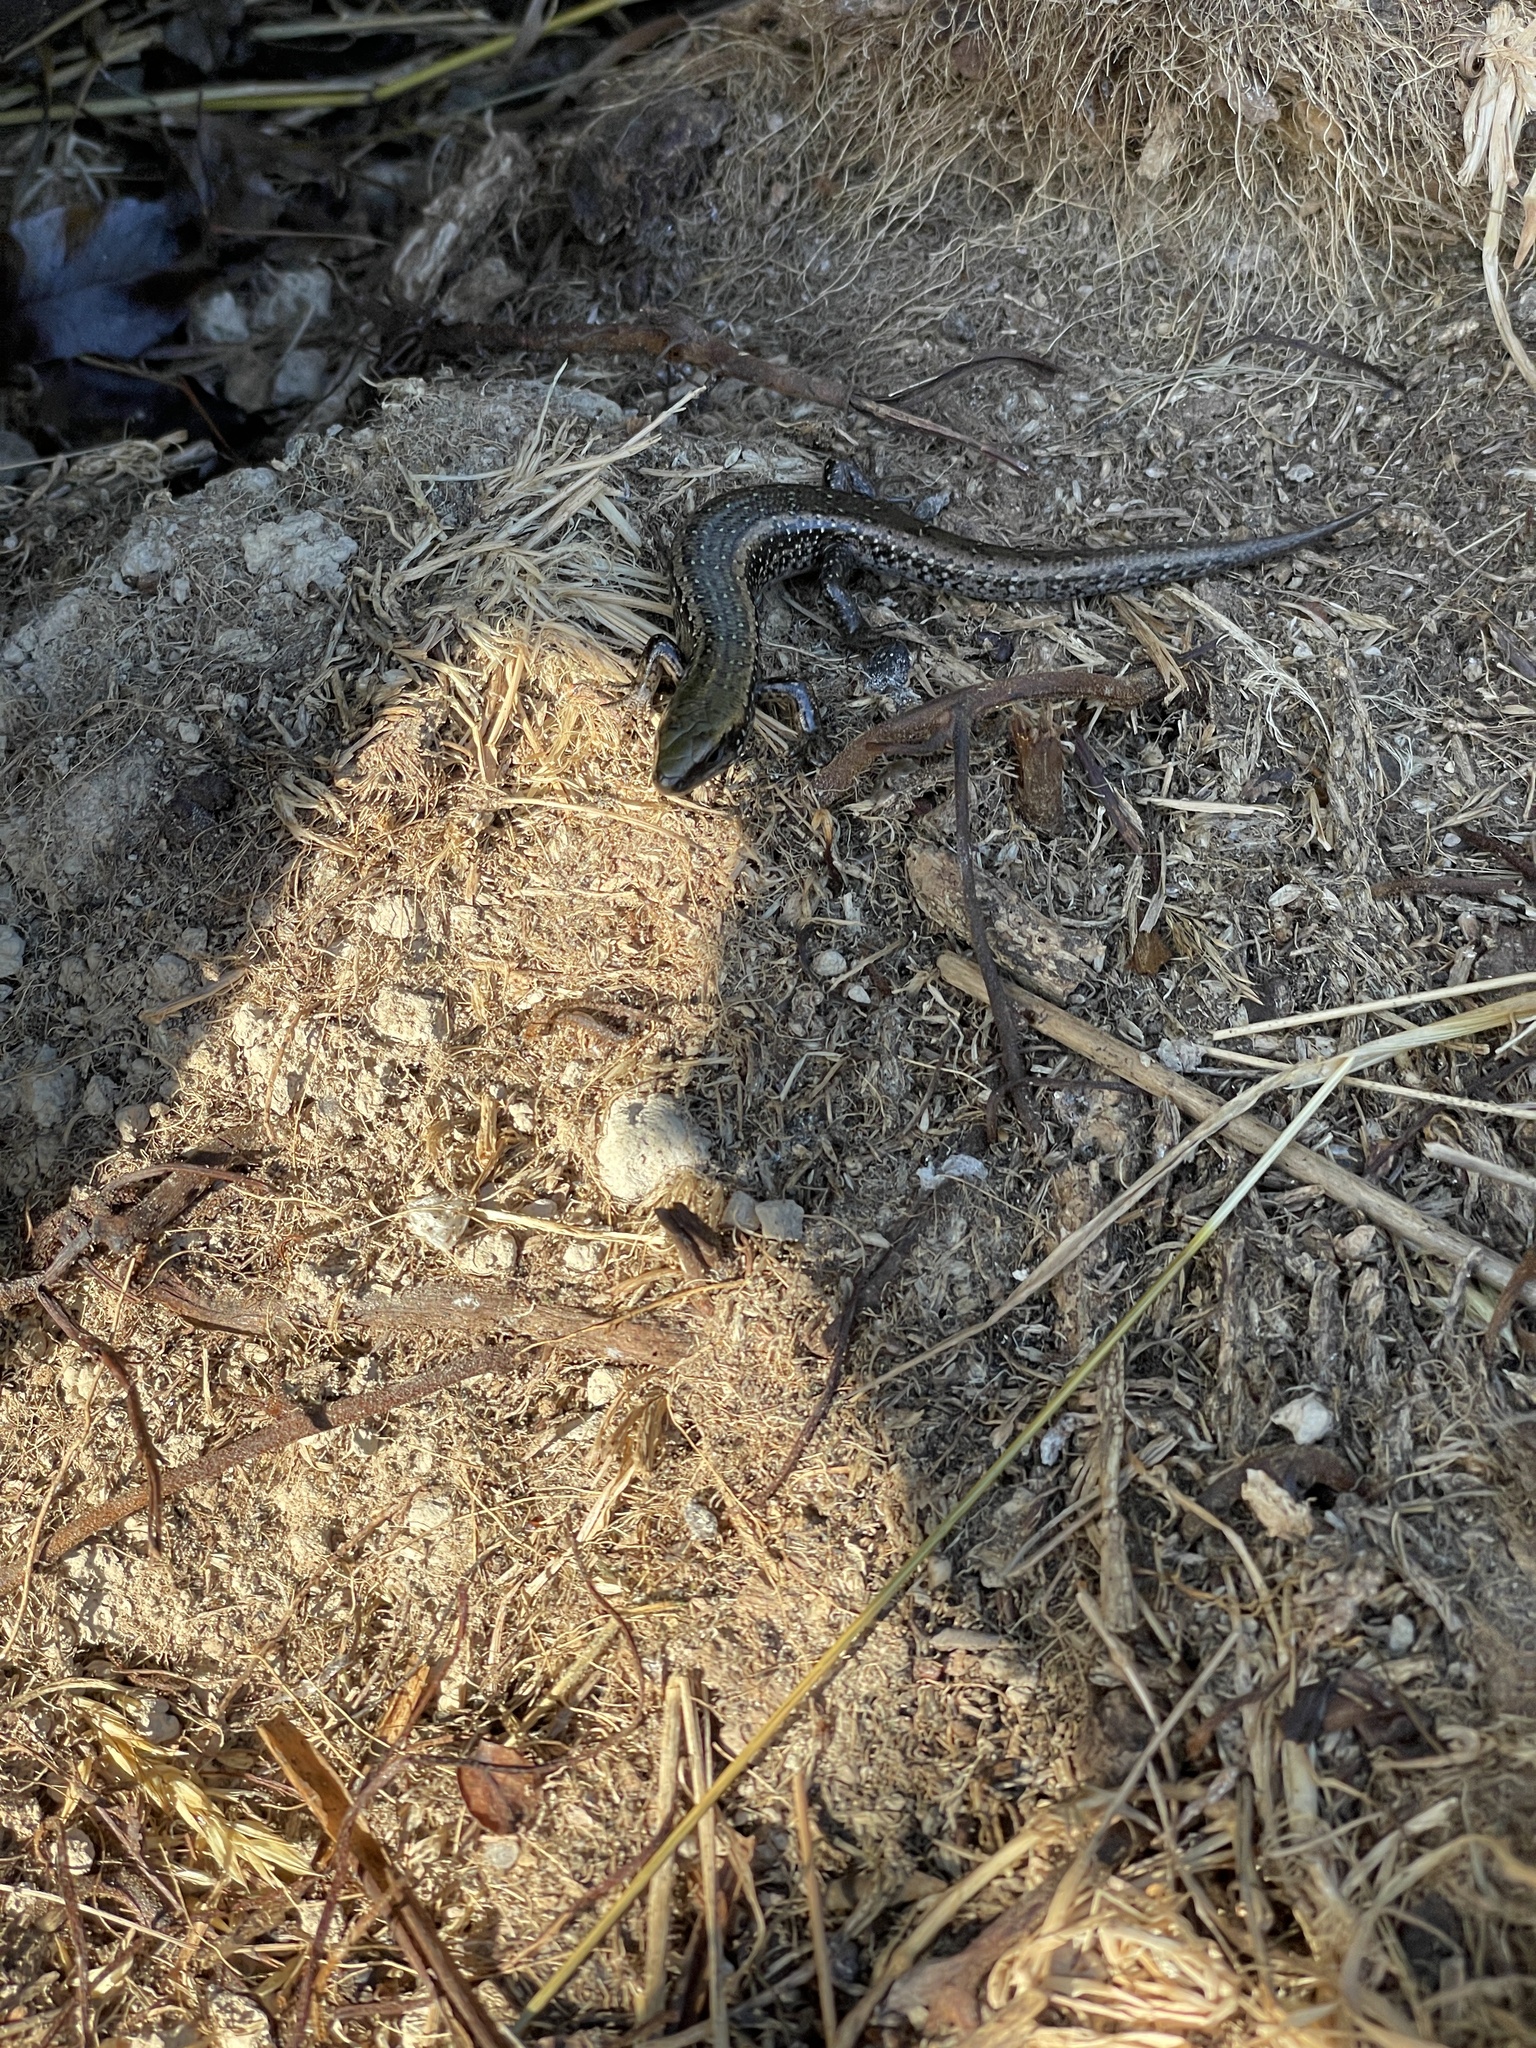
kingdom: Animalia
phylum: Chordata
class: Squamata
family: Scincidae
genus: Oligosoma
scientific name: Oligosoma chloronoton
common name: Green skink
